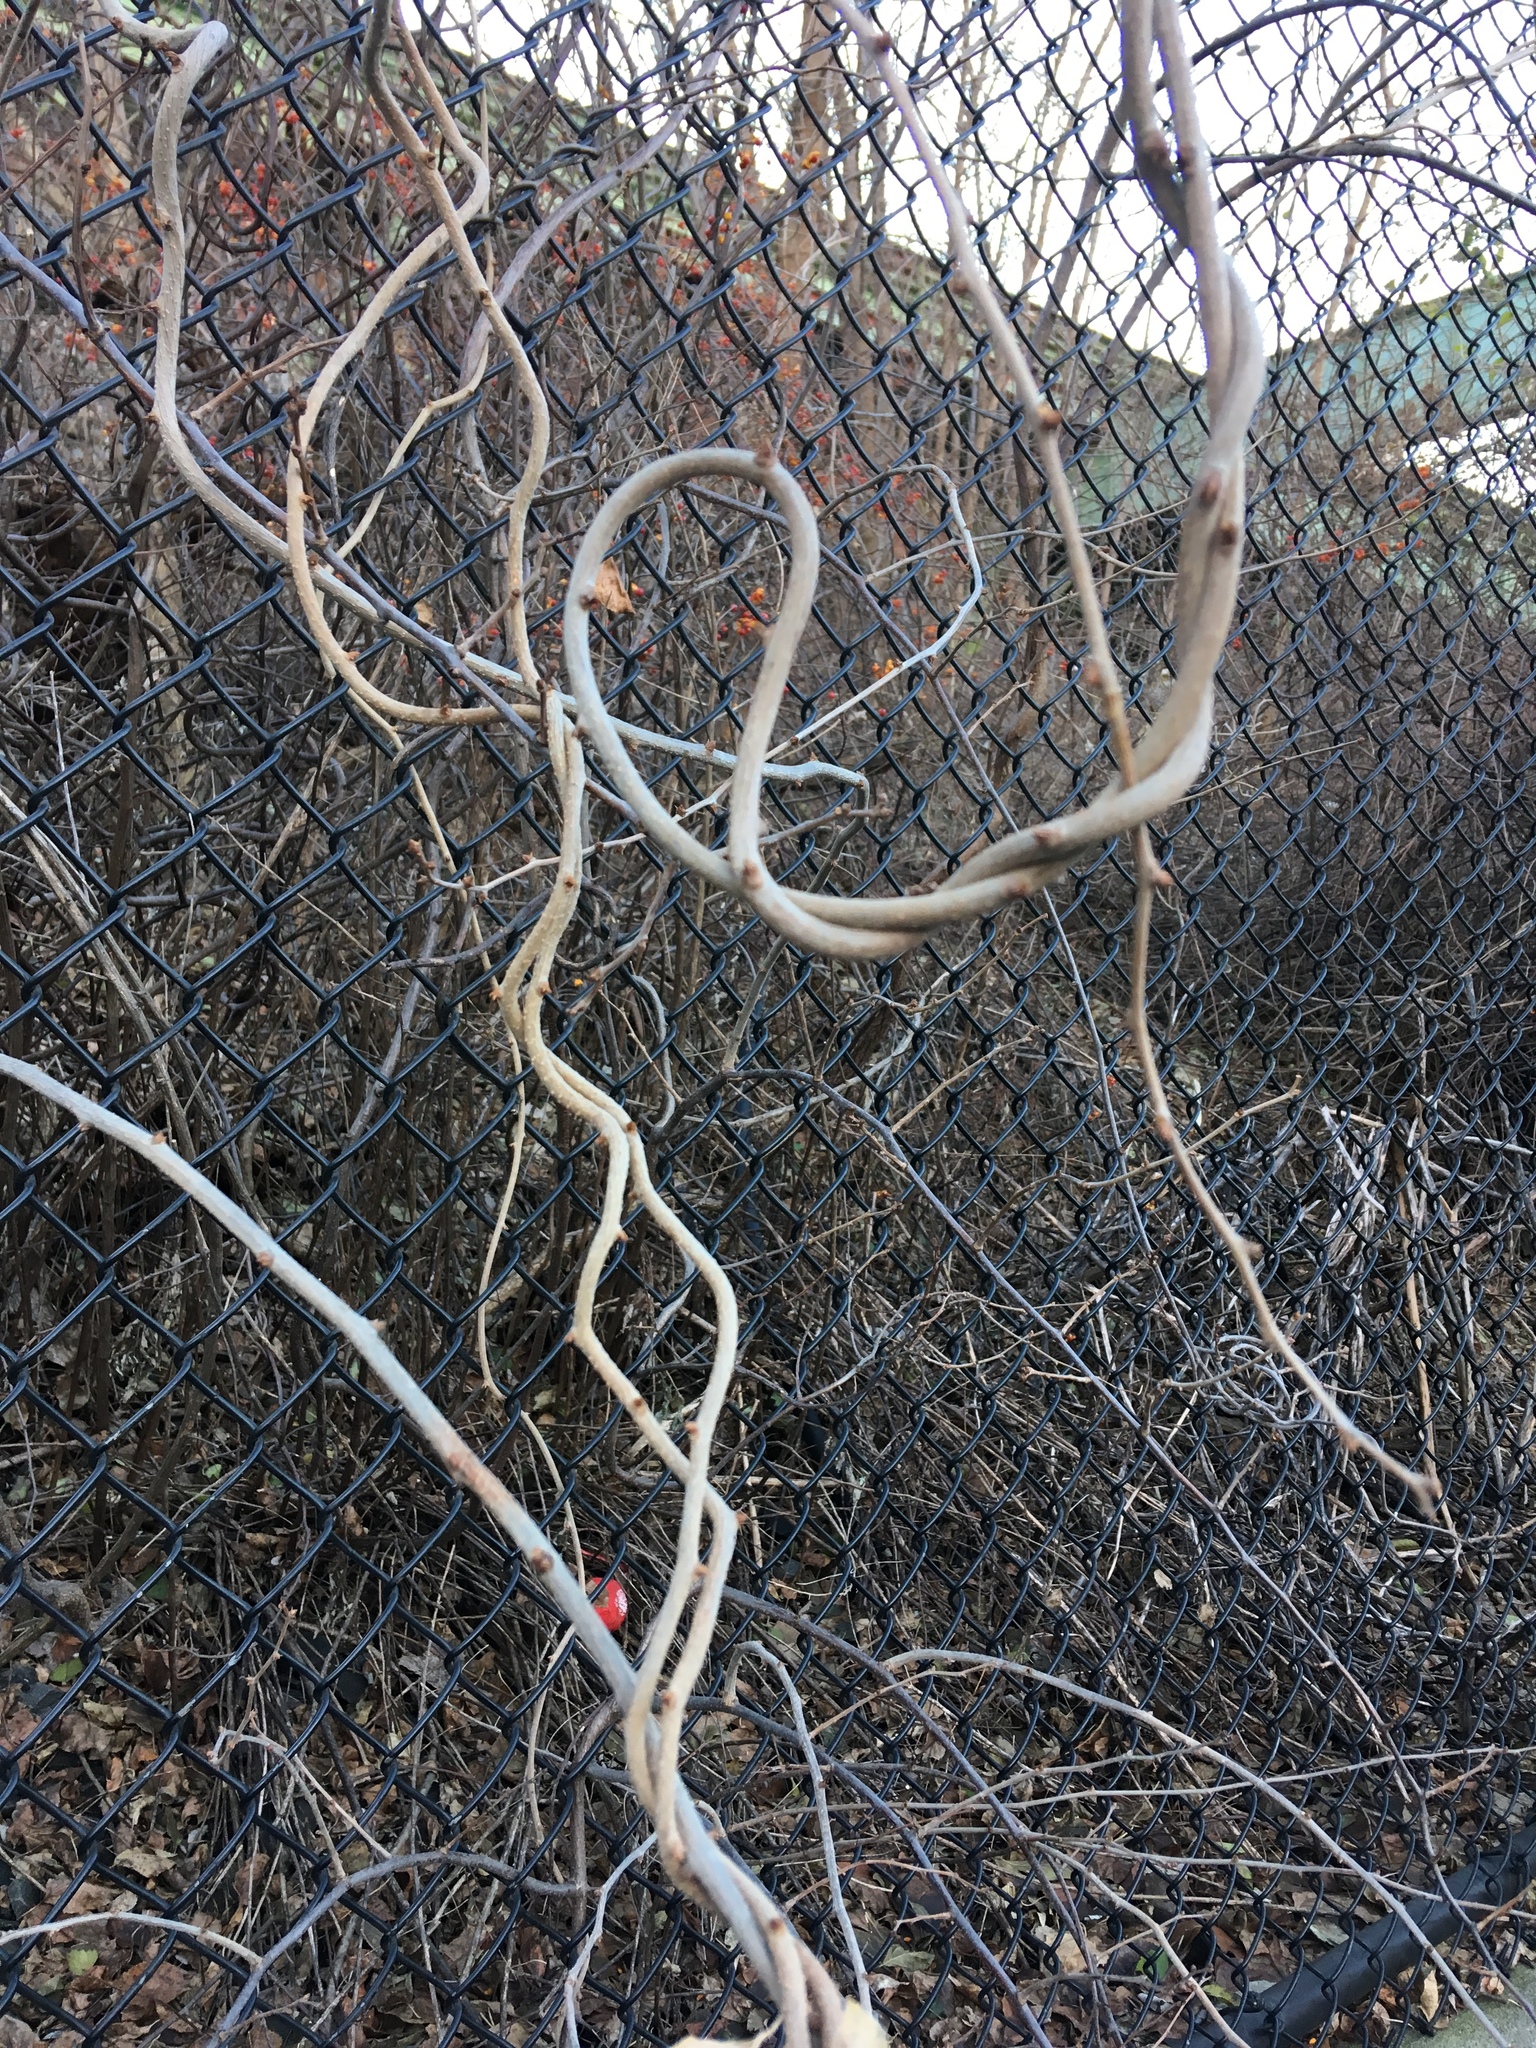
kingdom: Plantae
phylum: Tracheophyta
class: Magnoliopsida
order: Celastrales
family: Celastraceae
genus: Celastrus
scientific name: Celastrus orbiculatus
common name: Oriental bittersweet
